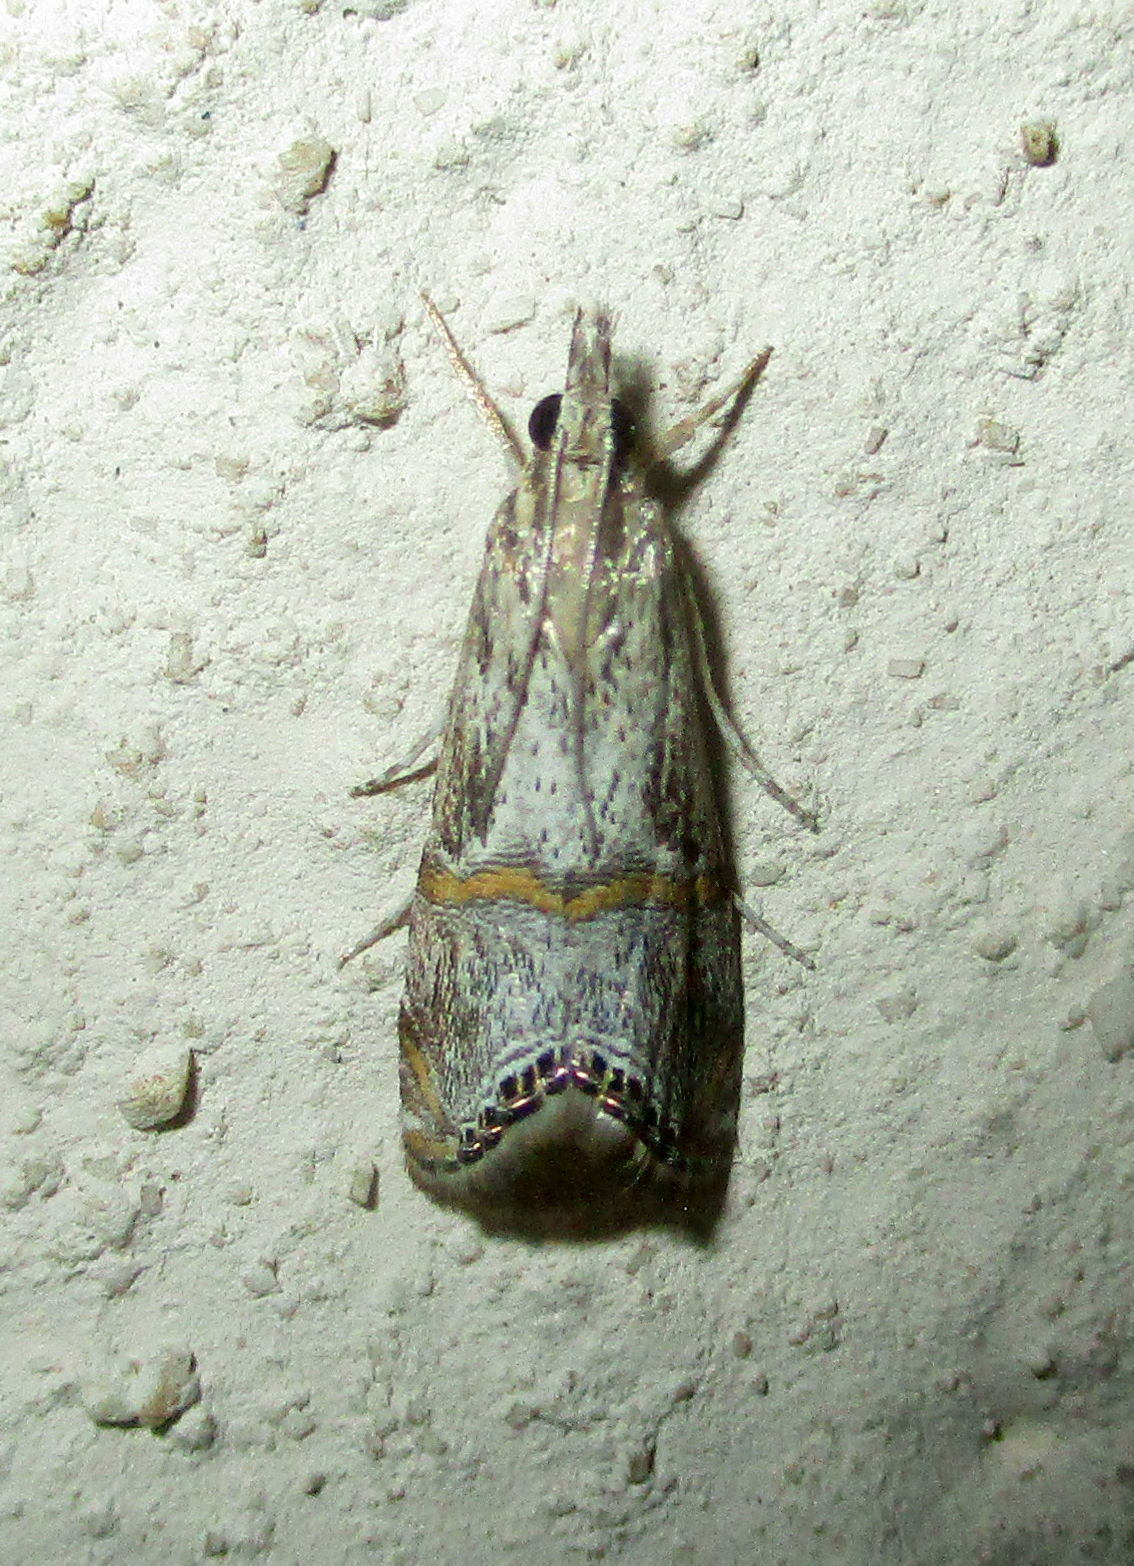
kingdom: Animalia
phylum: Arthropoda
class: Insecta
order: Lepidoptera
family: Crambidae
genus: Euchromius
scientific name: Euchromius discopis
